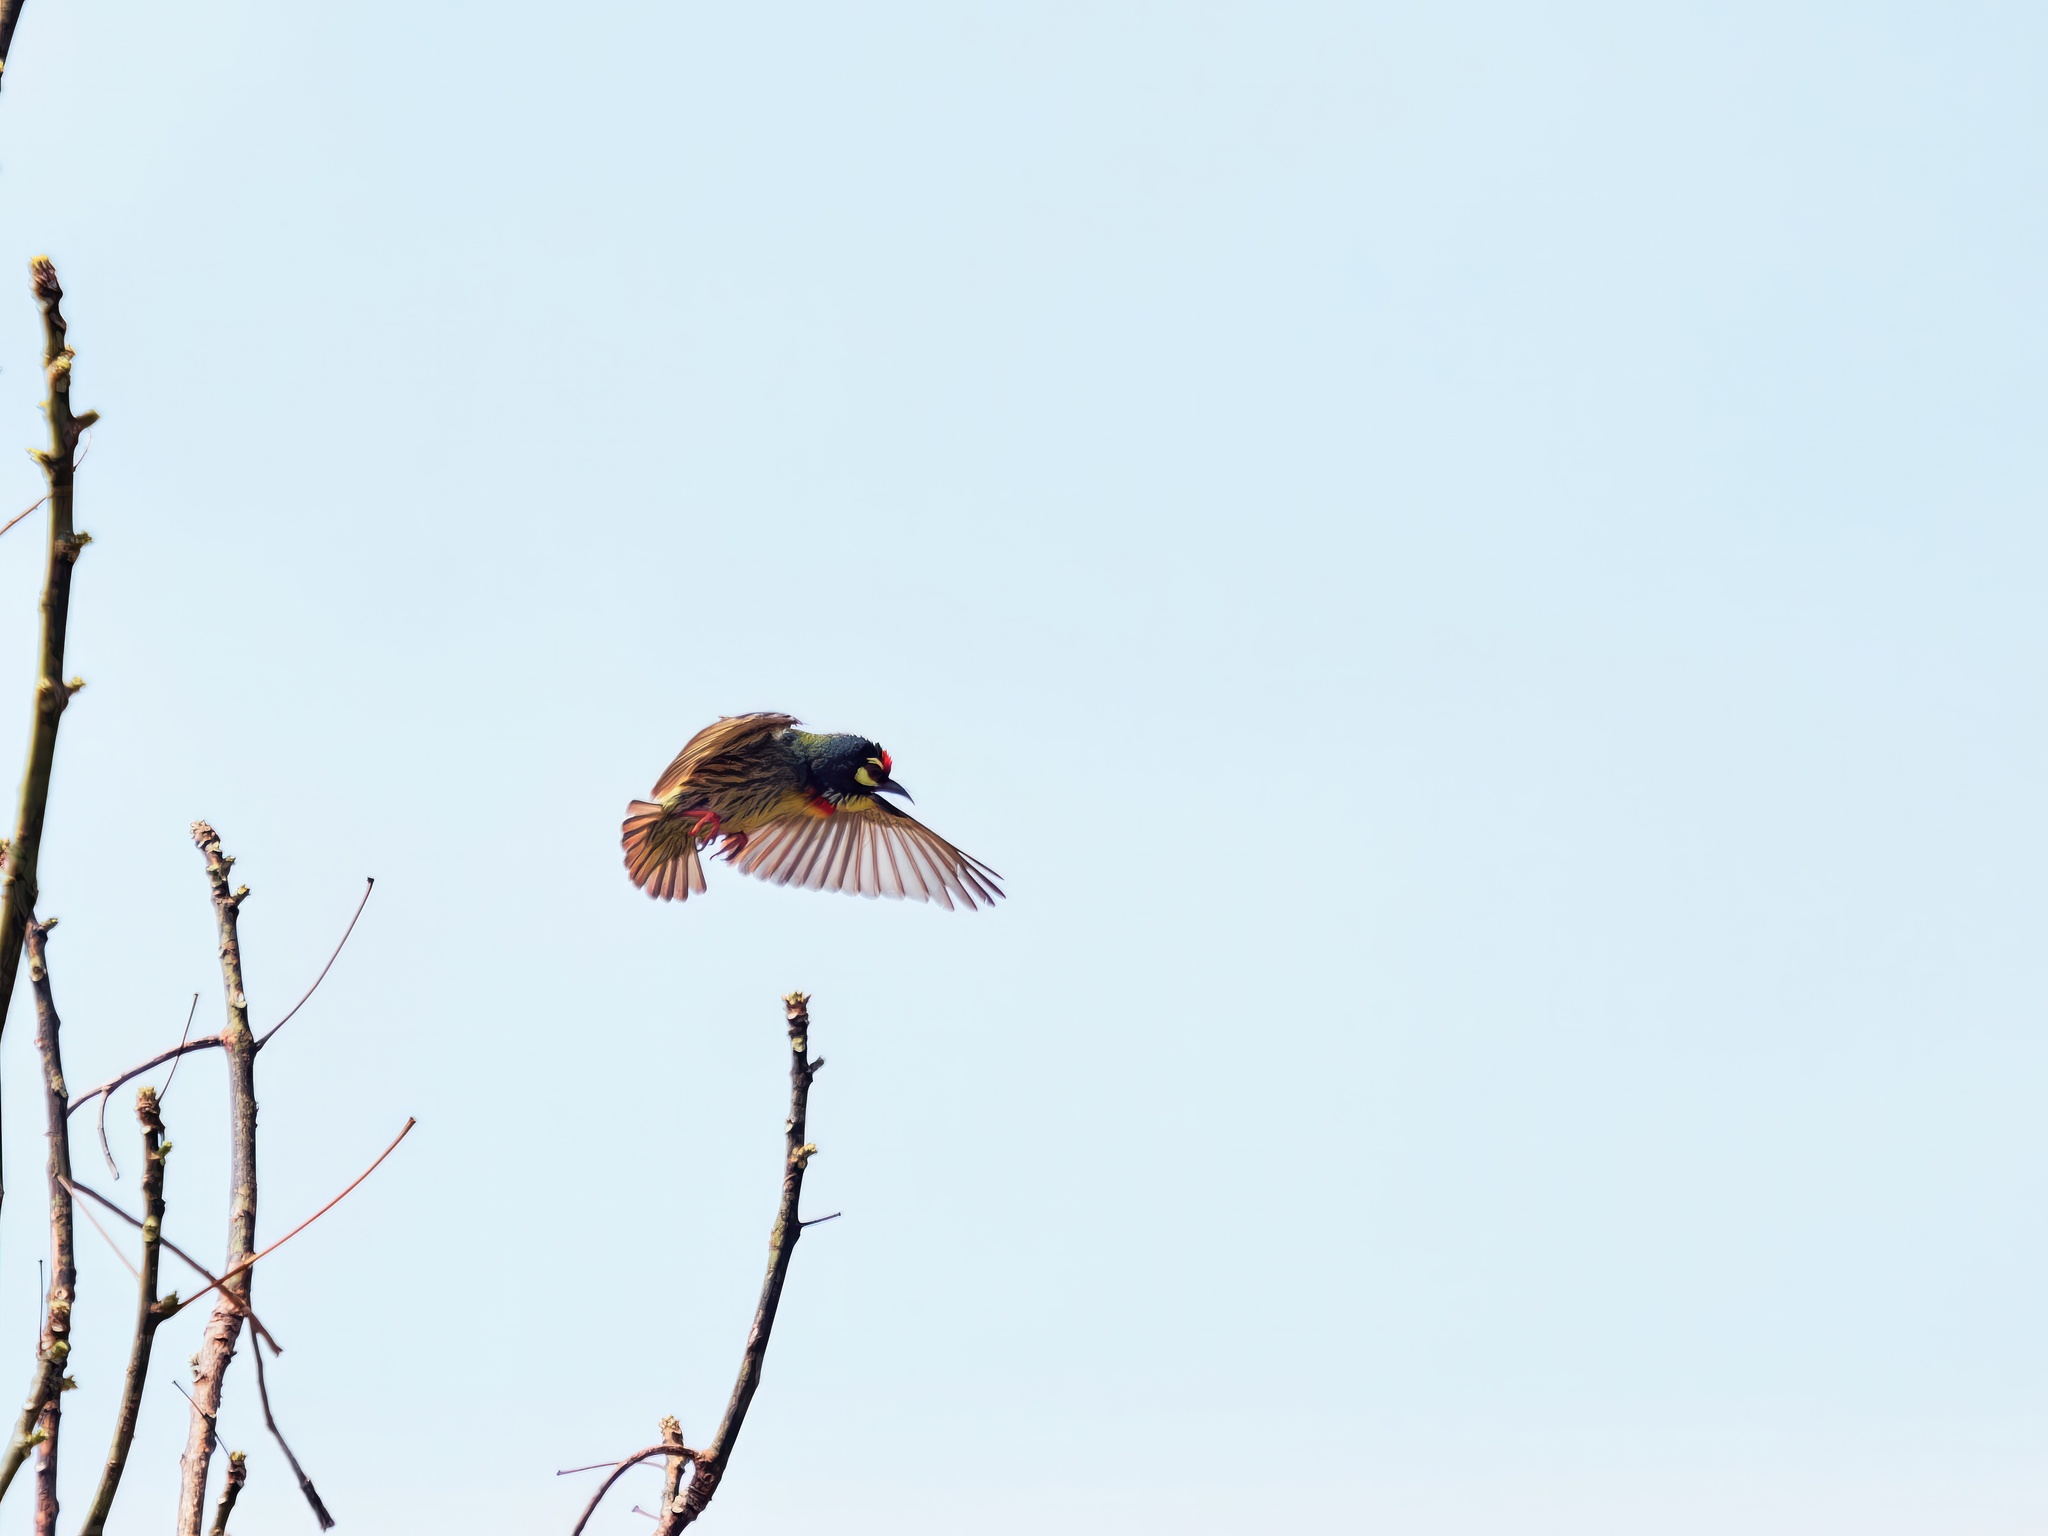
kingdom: Animalia
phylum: Chordata
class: Aves
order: Piciformes
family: Megalaimidae
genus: Psilopogon
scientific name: Psilopogon haemacephalus
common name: Coppersmith barbet
